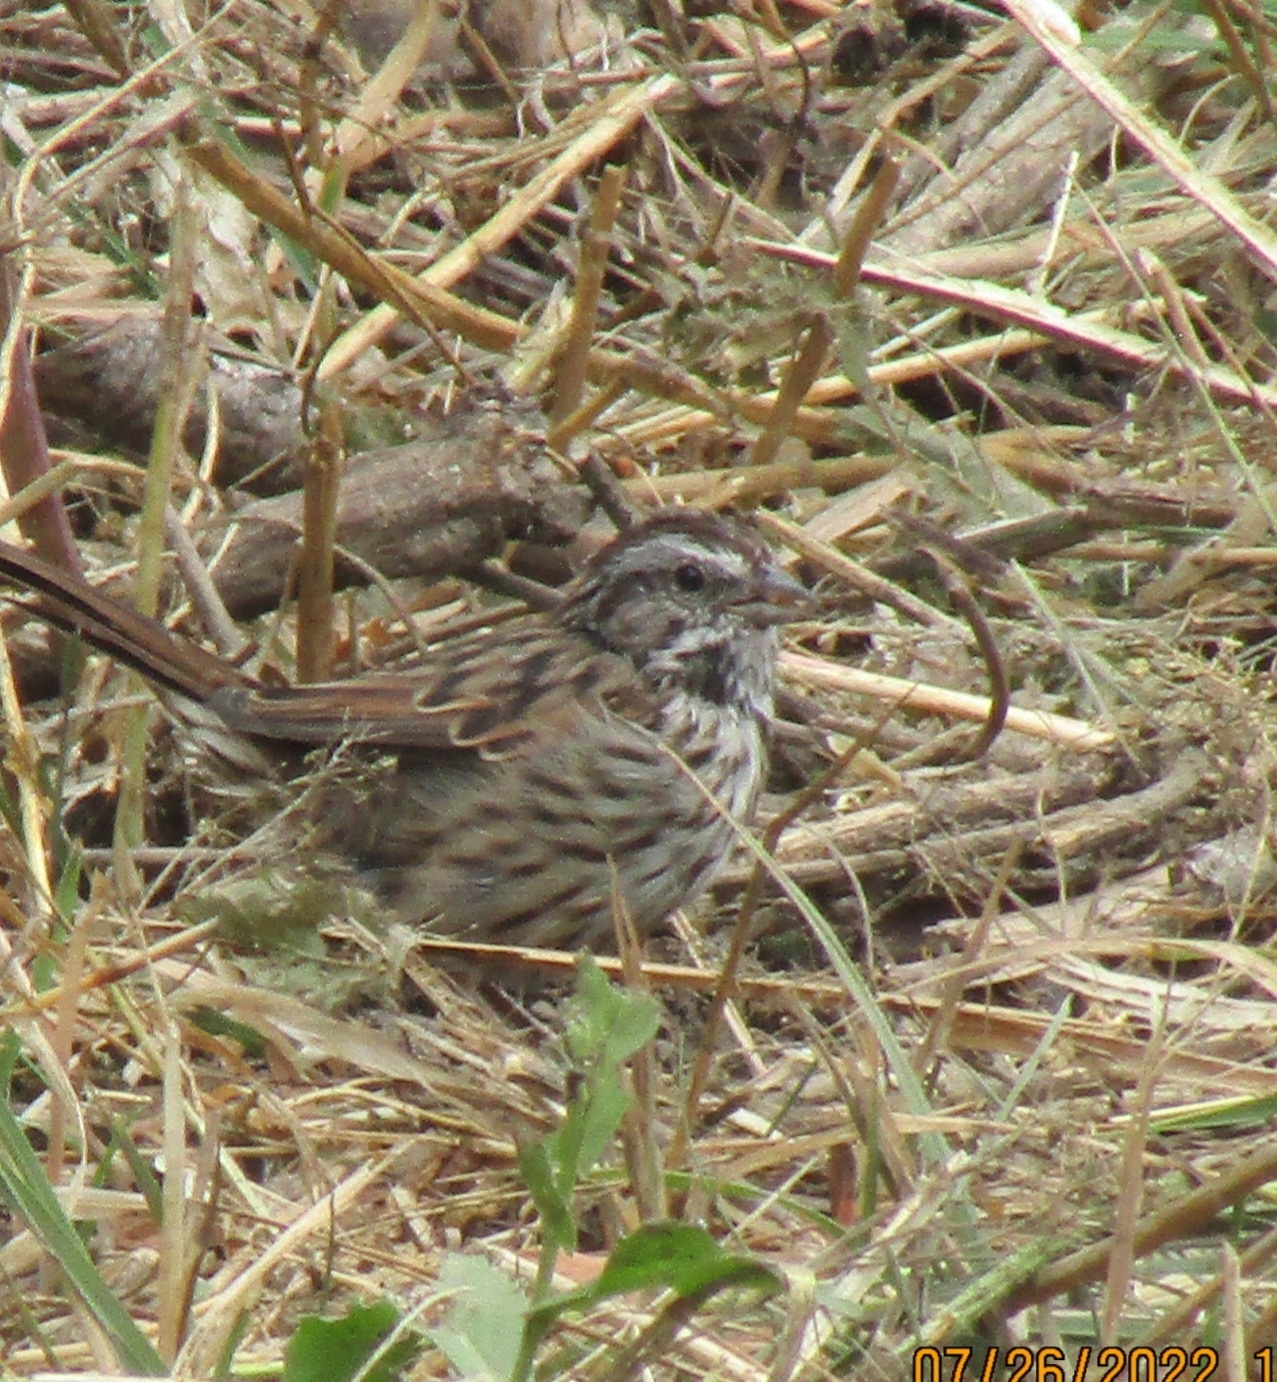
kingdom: Animalia
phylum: Chordata
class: Aves
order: Passeriformes
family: Passerellidae
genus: Melospiza
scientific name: Melospiza melodia
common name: Song sparrow
